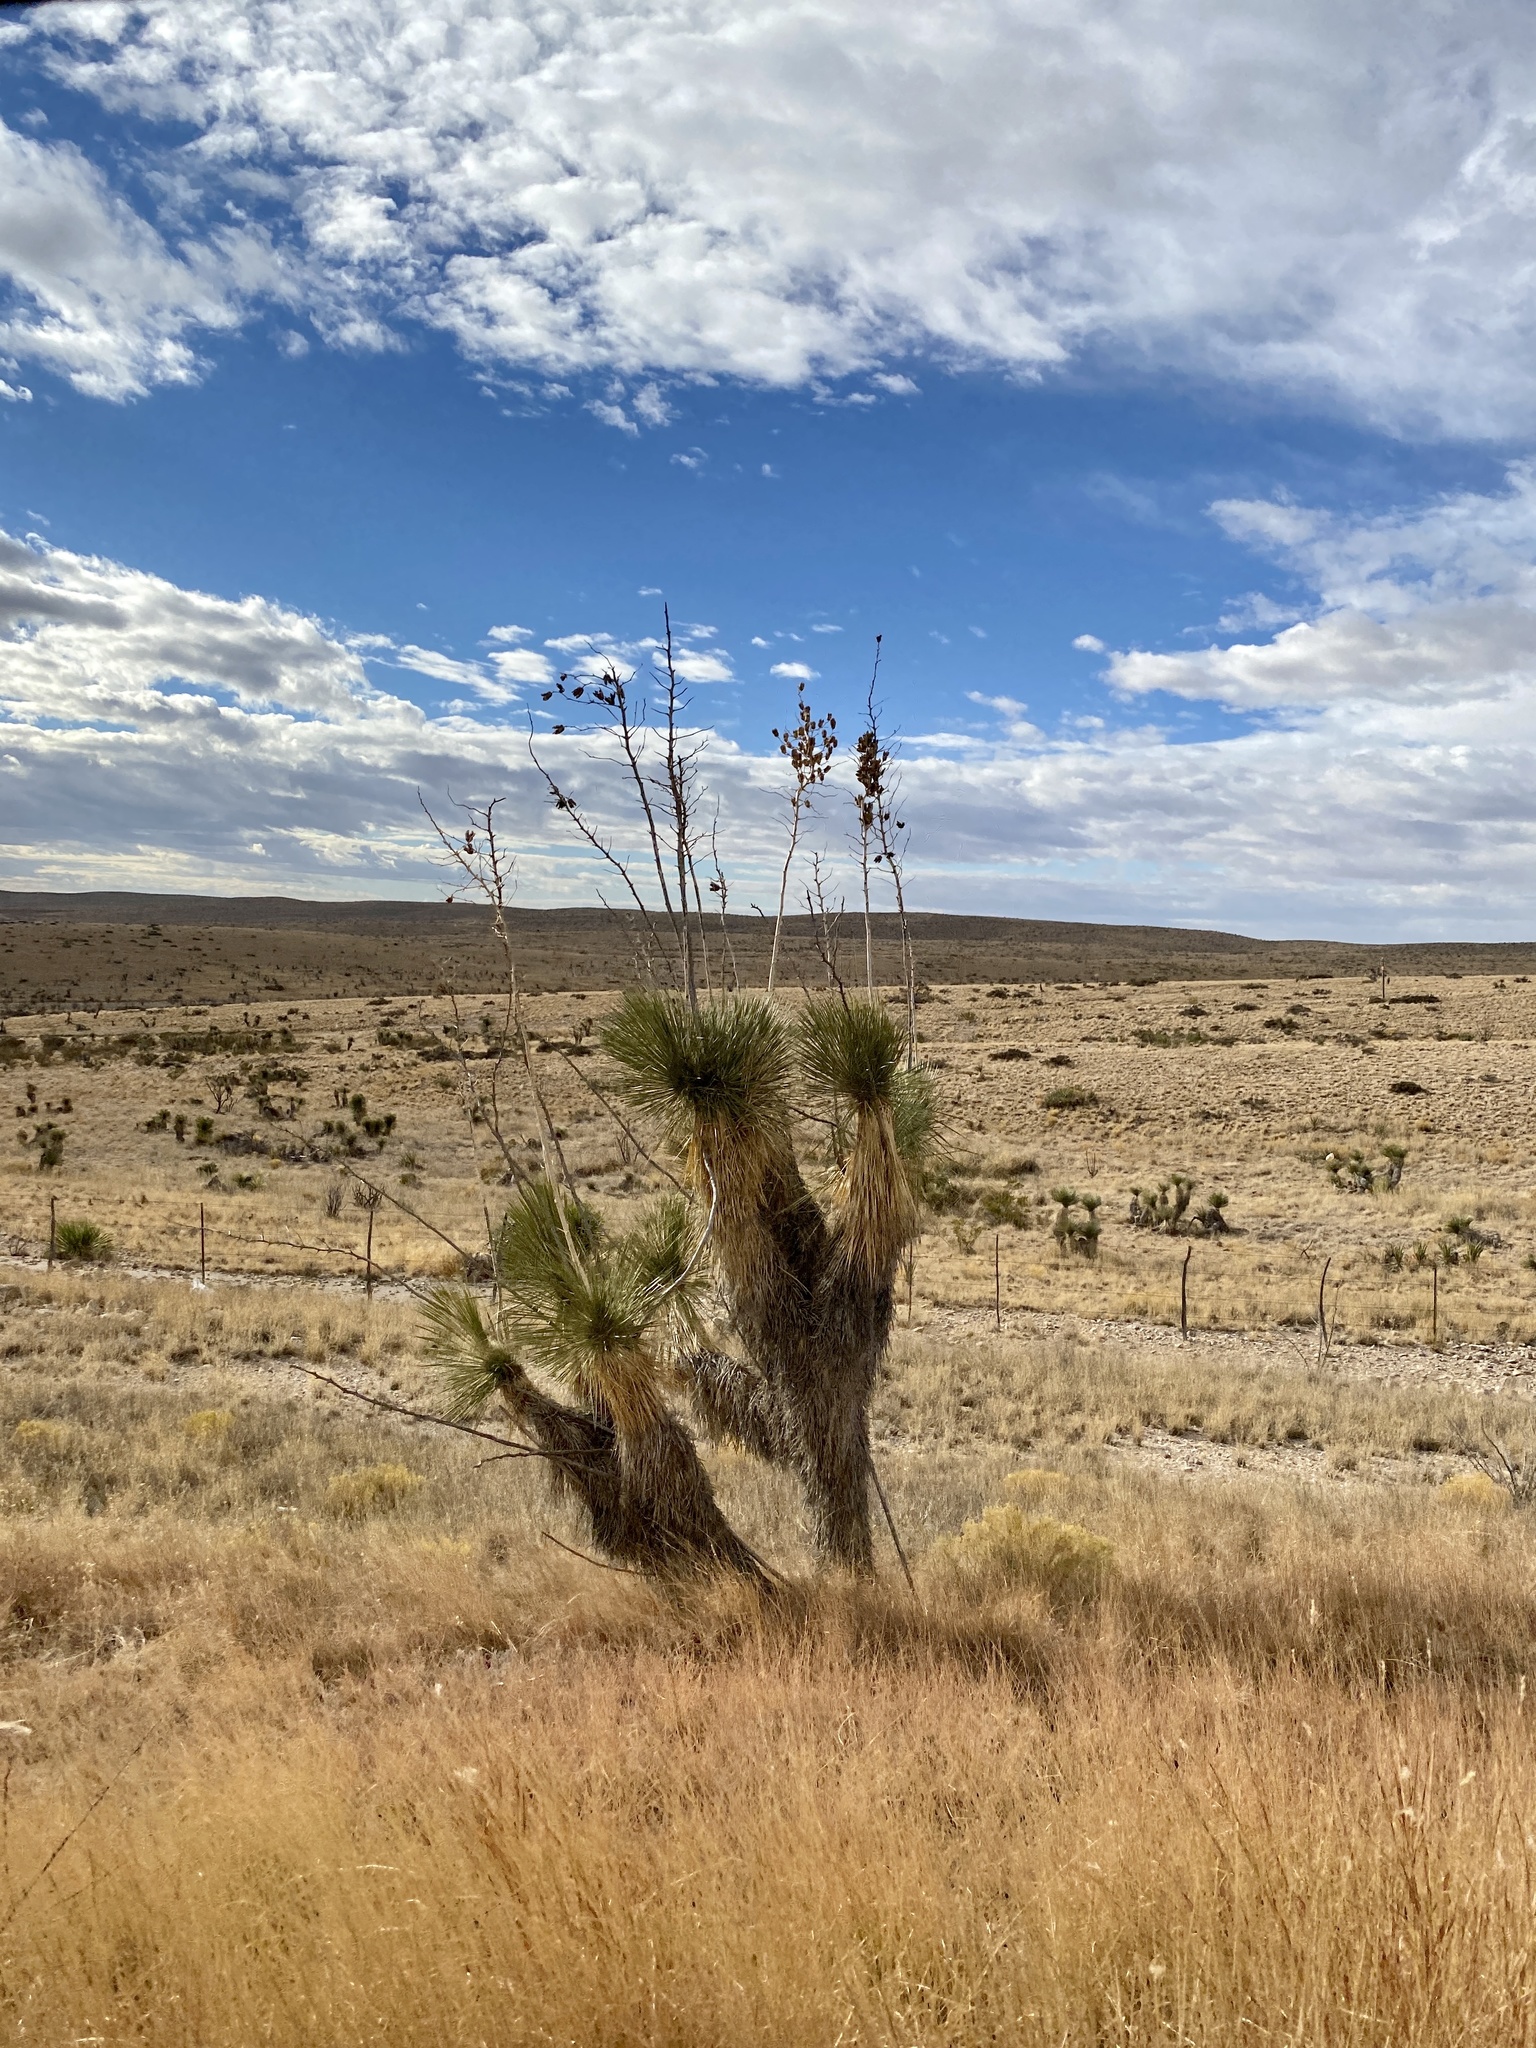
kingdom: Plantae
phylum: Tracheophyta
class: Liliopsida
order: Asparagales
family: Asparagaceae
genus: Yucca
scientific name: Yucca elata
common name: Palmella
